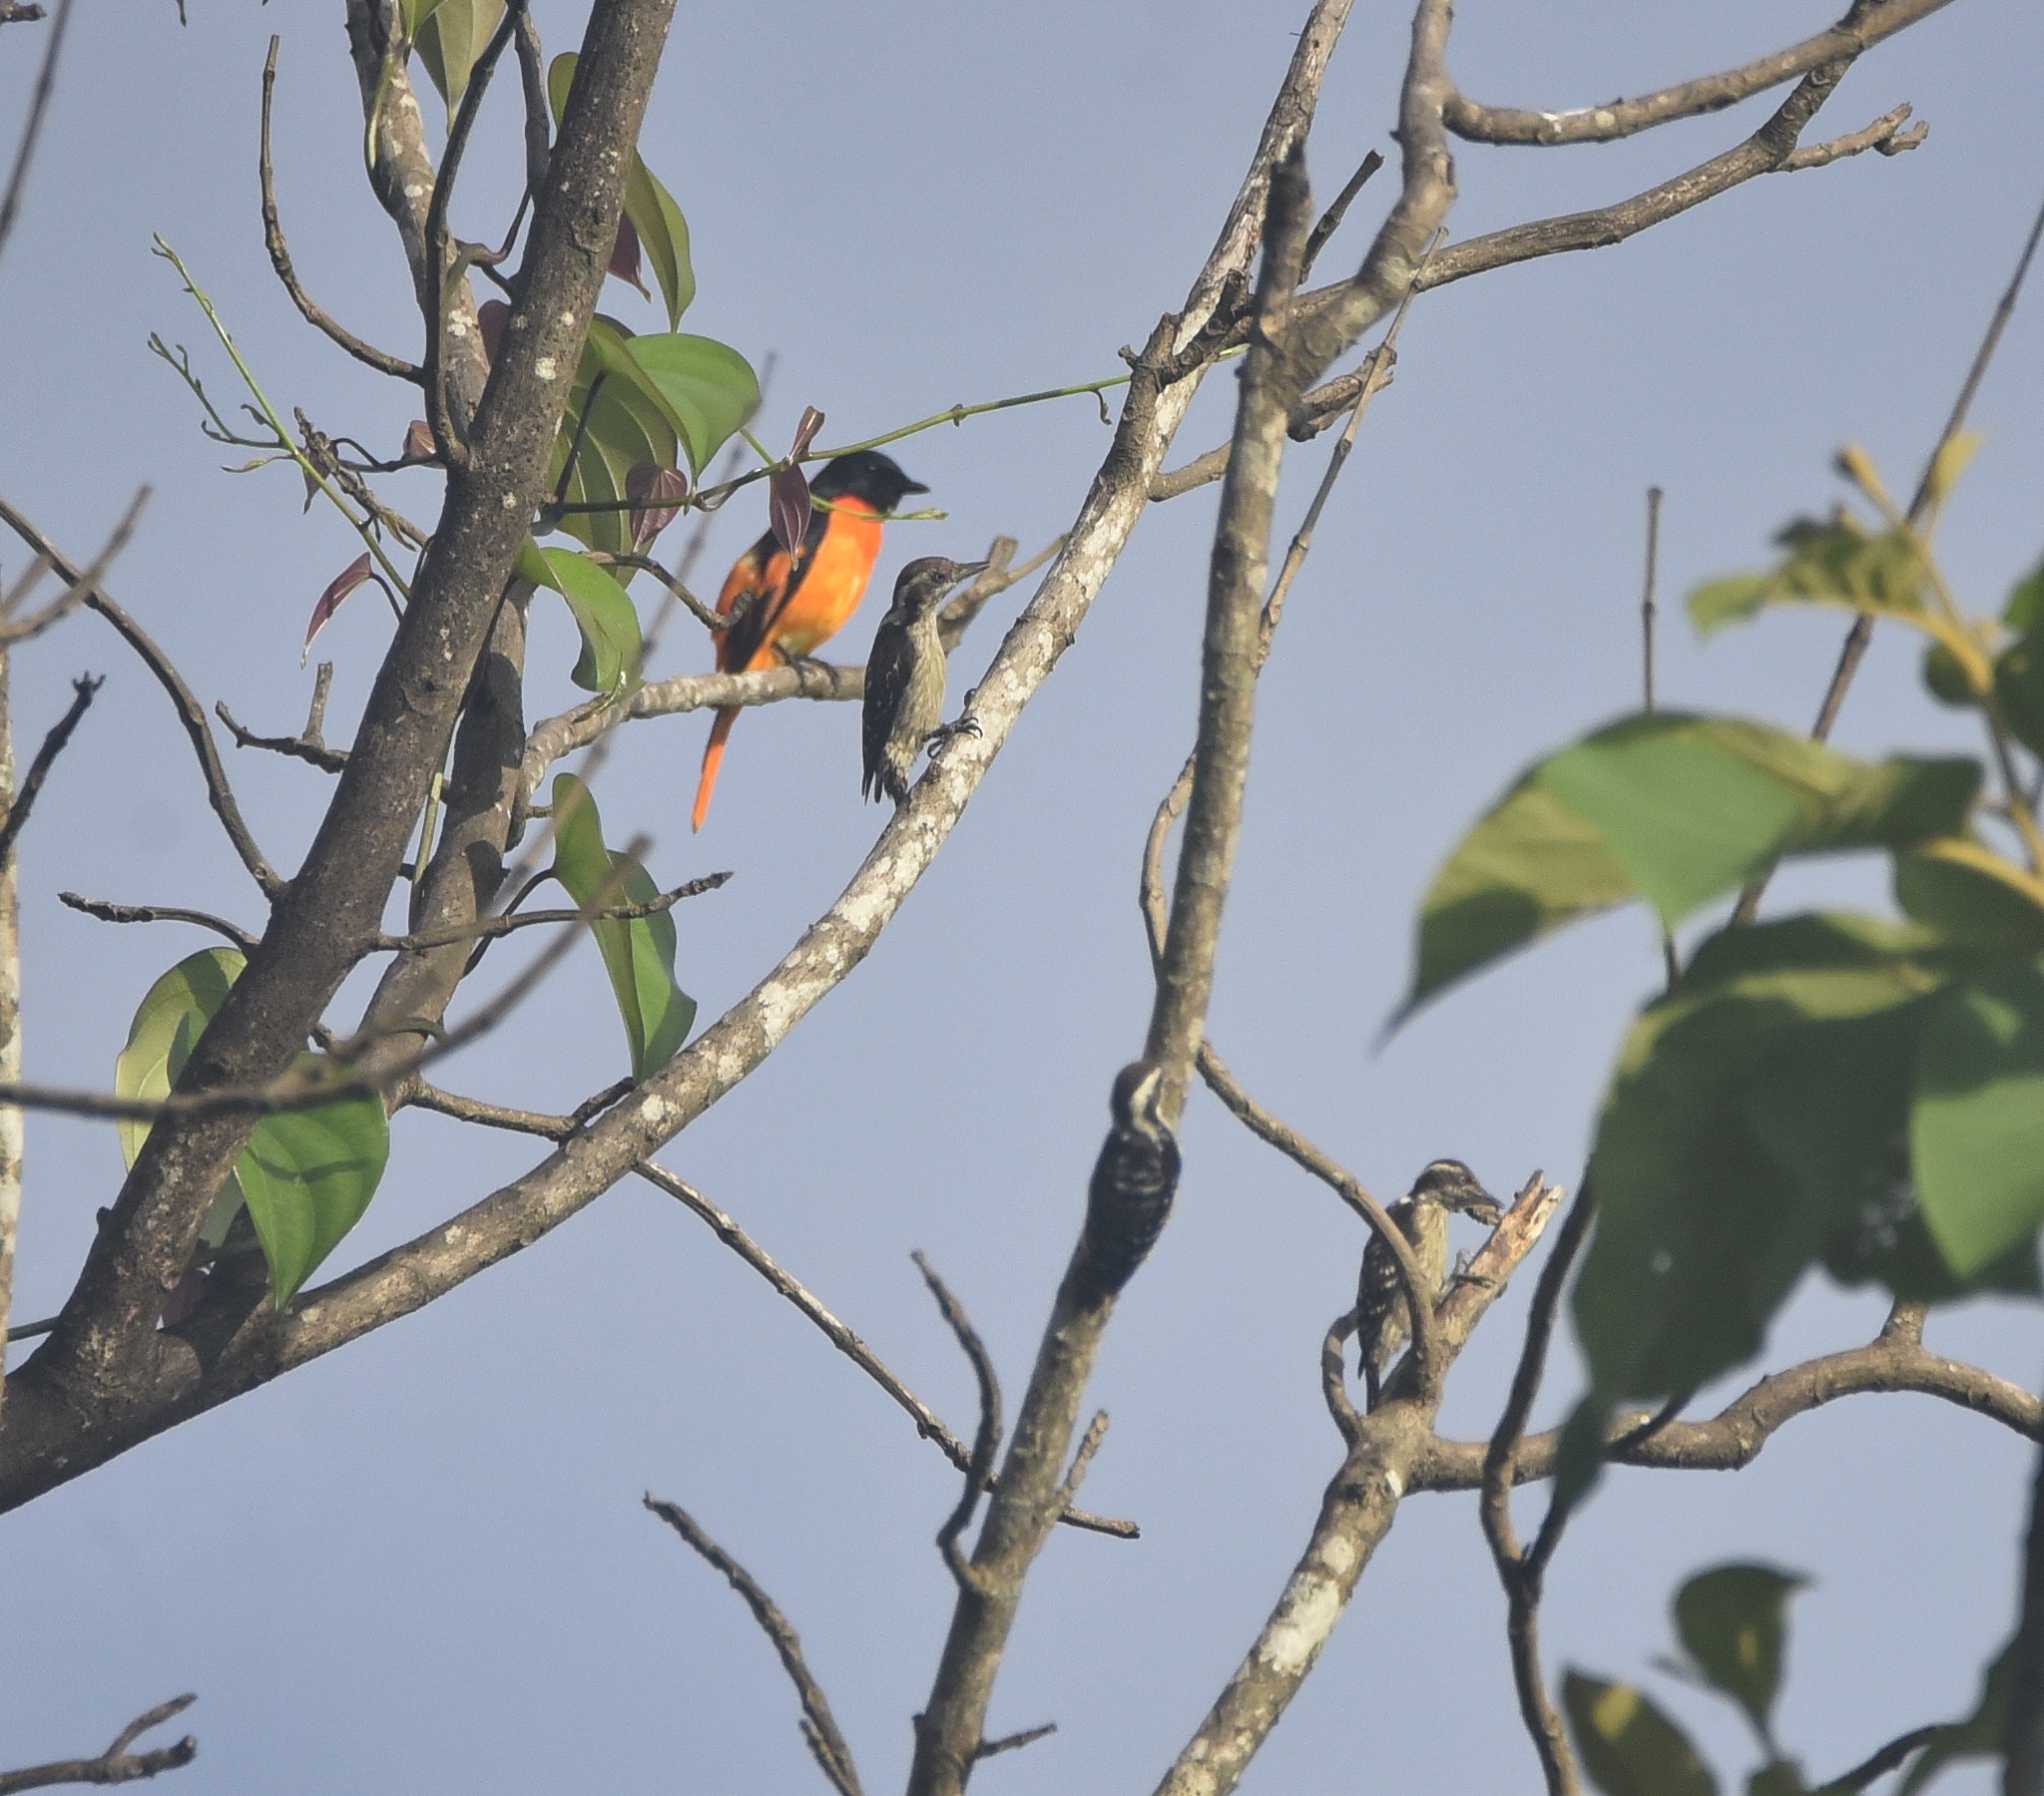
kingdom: Animalia
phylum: Chordata
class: Aves
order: Piciformes
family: Picidae
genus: Yungipicus
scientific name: Yungipicus nanus
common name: Brown-capped pygmy woodpecker
